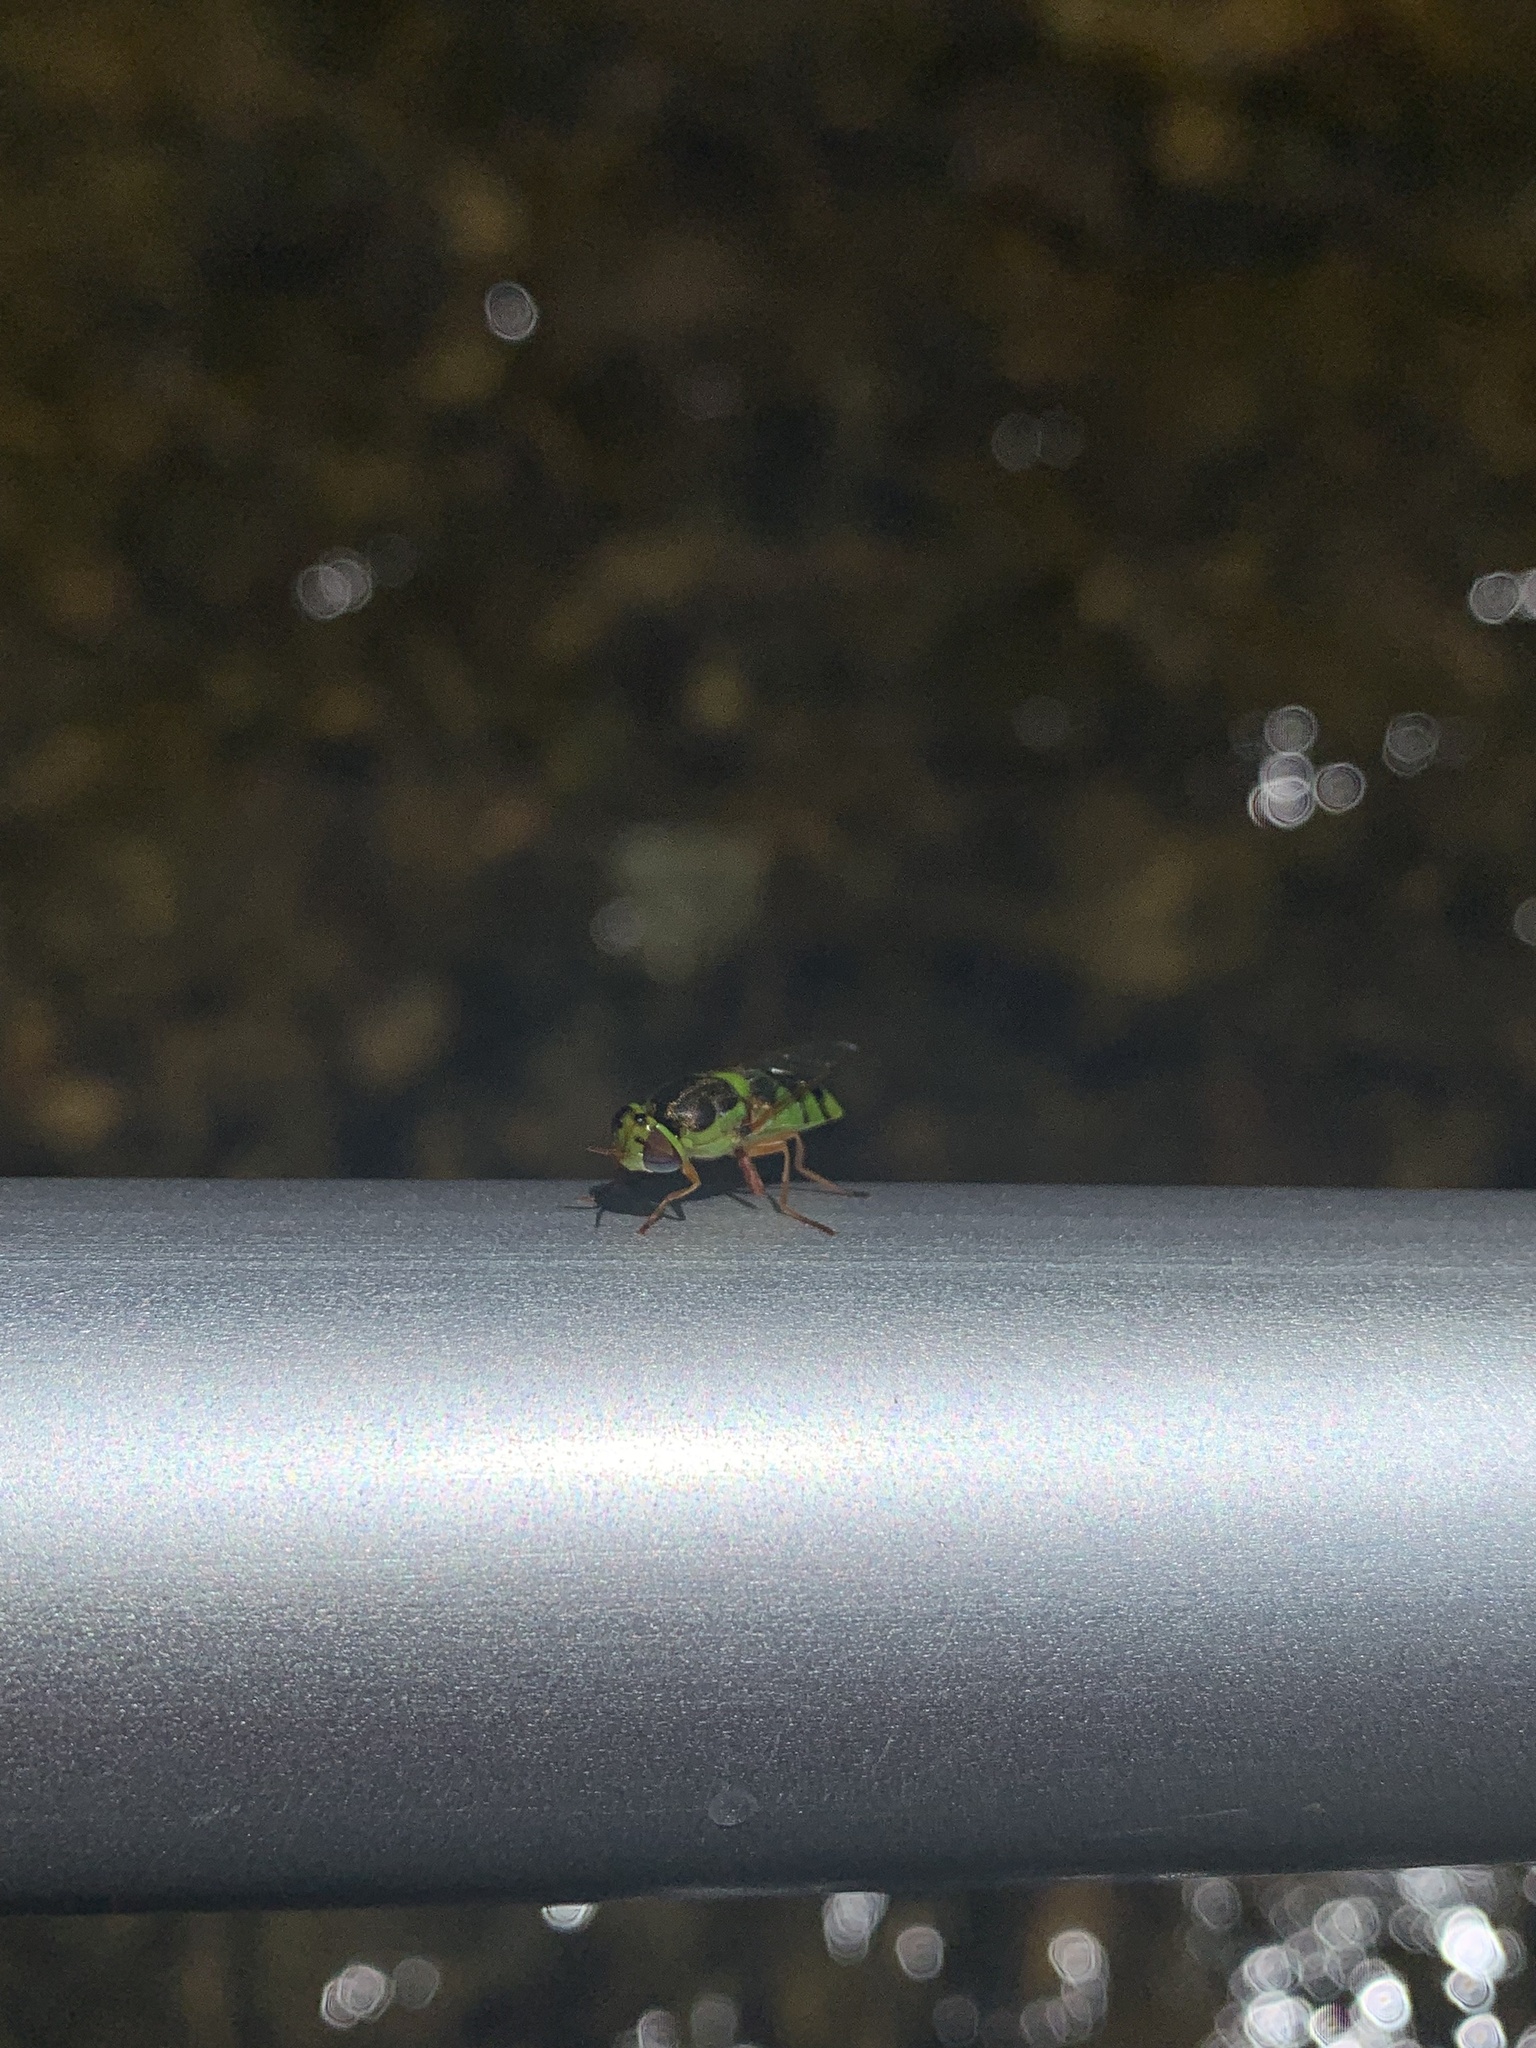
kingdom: Animalia
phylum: Arthropoda
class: Insecta
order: Diptera
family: Stratiomyidae
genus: Odontomyia
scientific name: Odontomyia cincta
